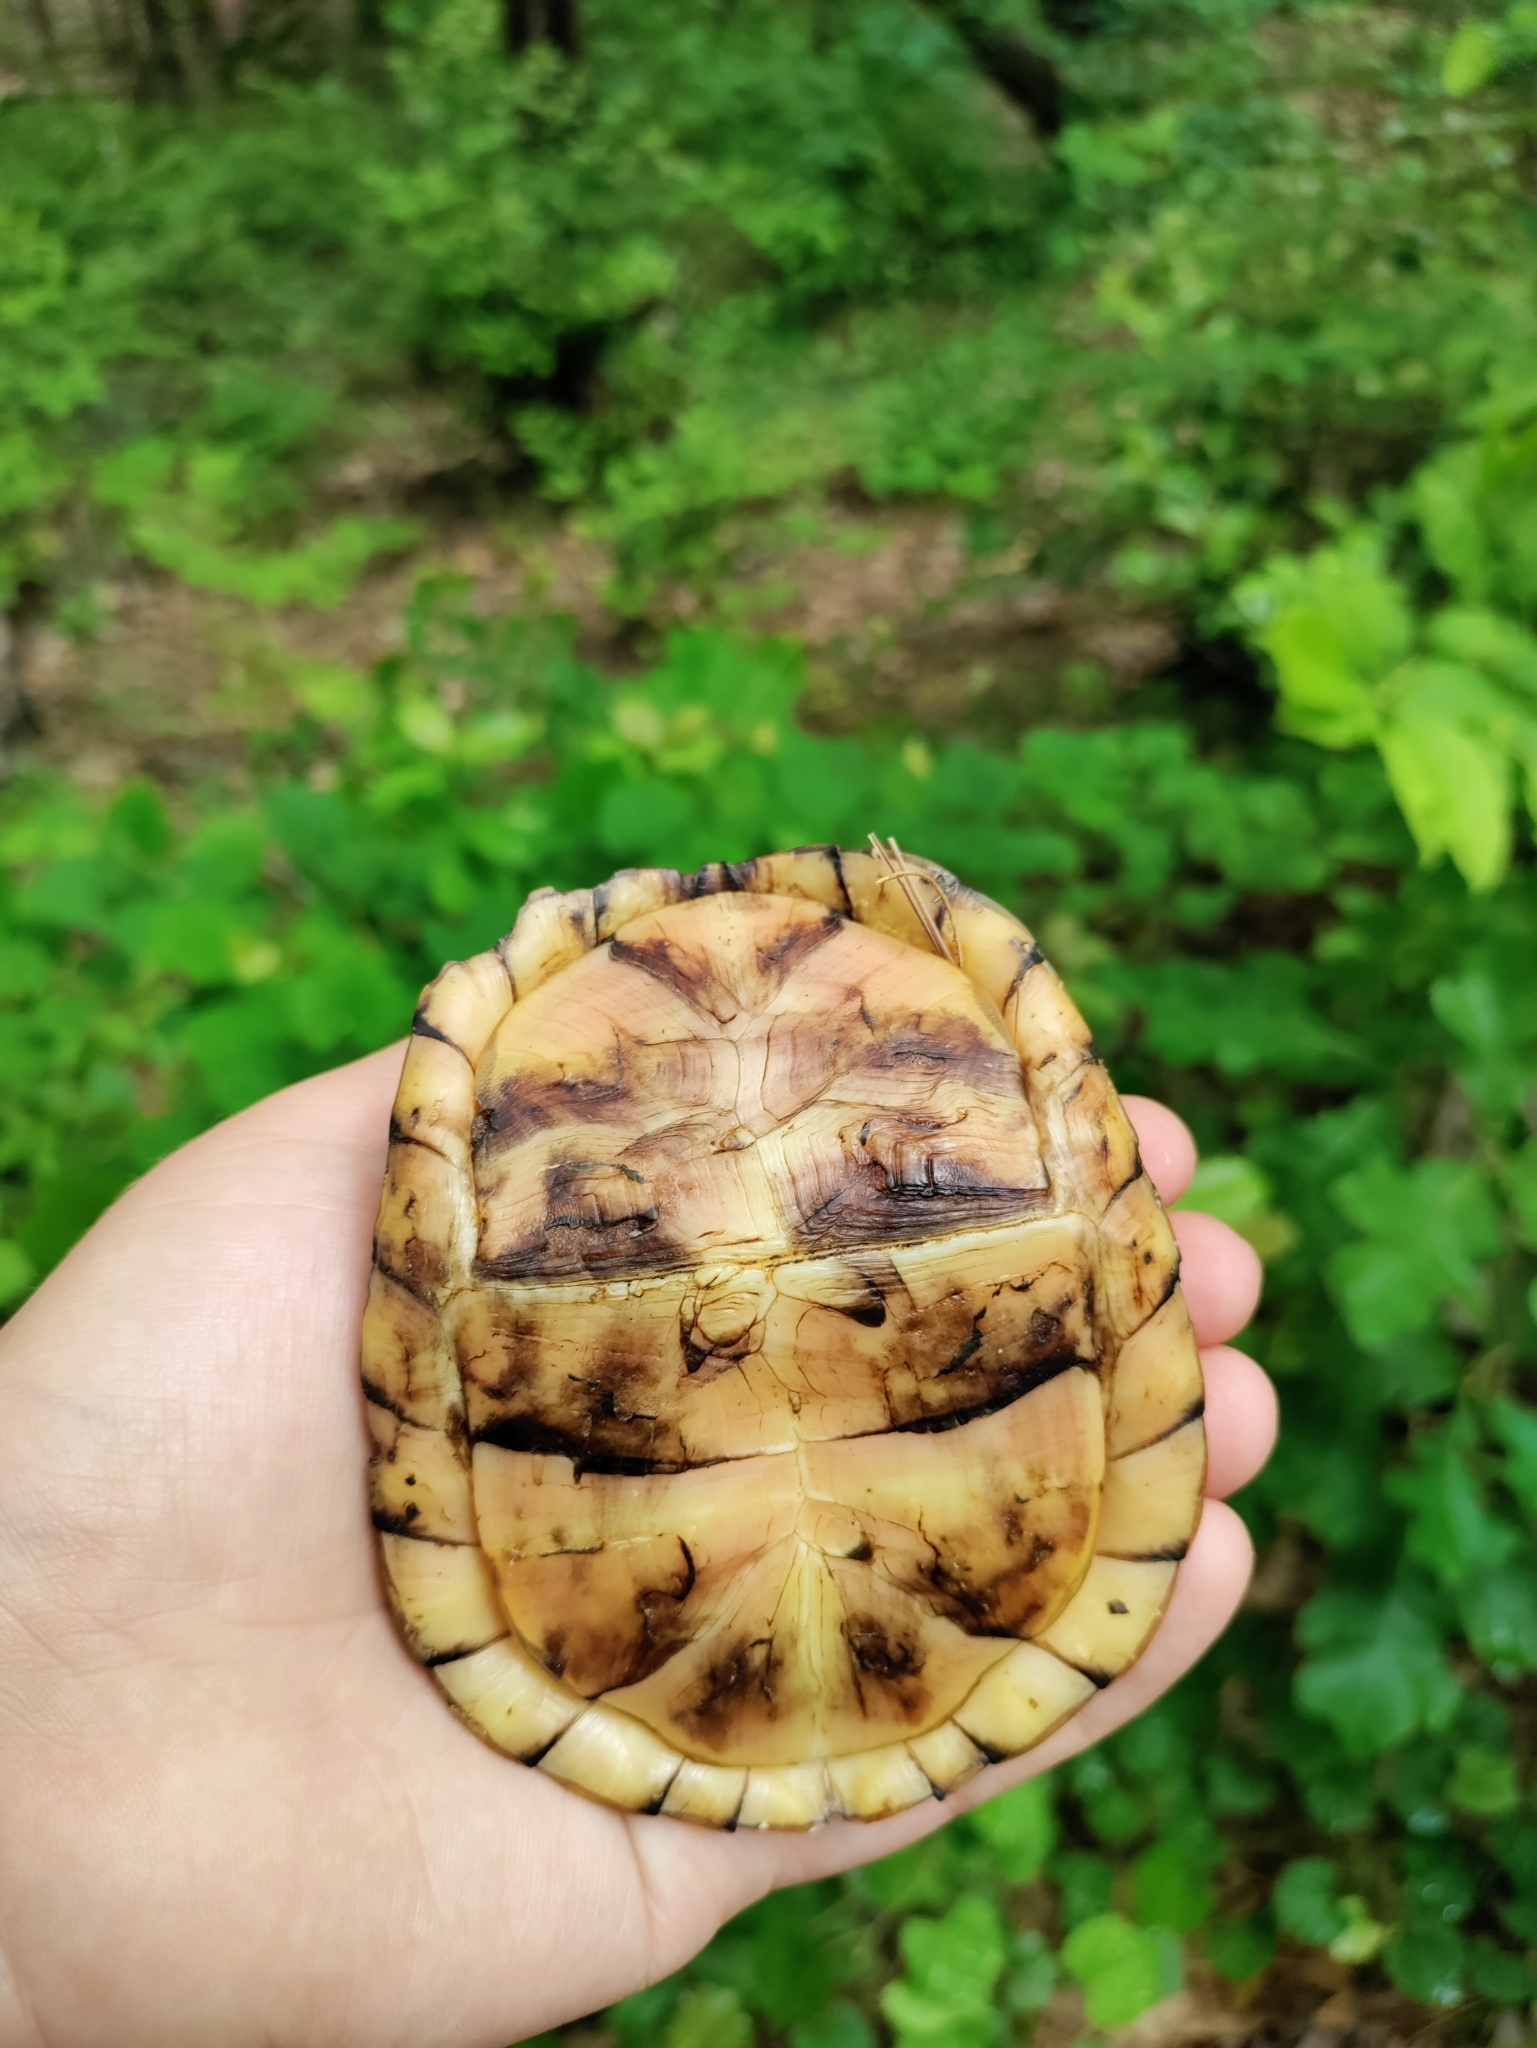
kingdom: Animalia
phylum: Chordata
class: Testudines
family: Emydidae
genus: Terrapene
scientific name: Terrapene carolina
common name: Common box turtle
